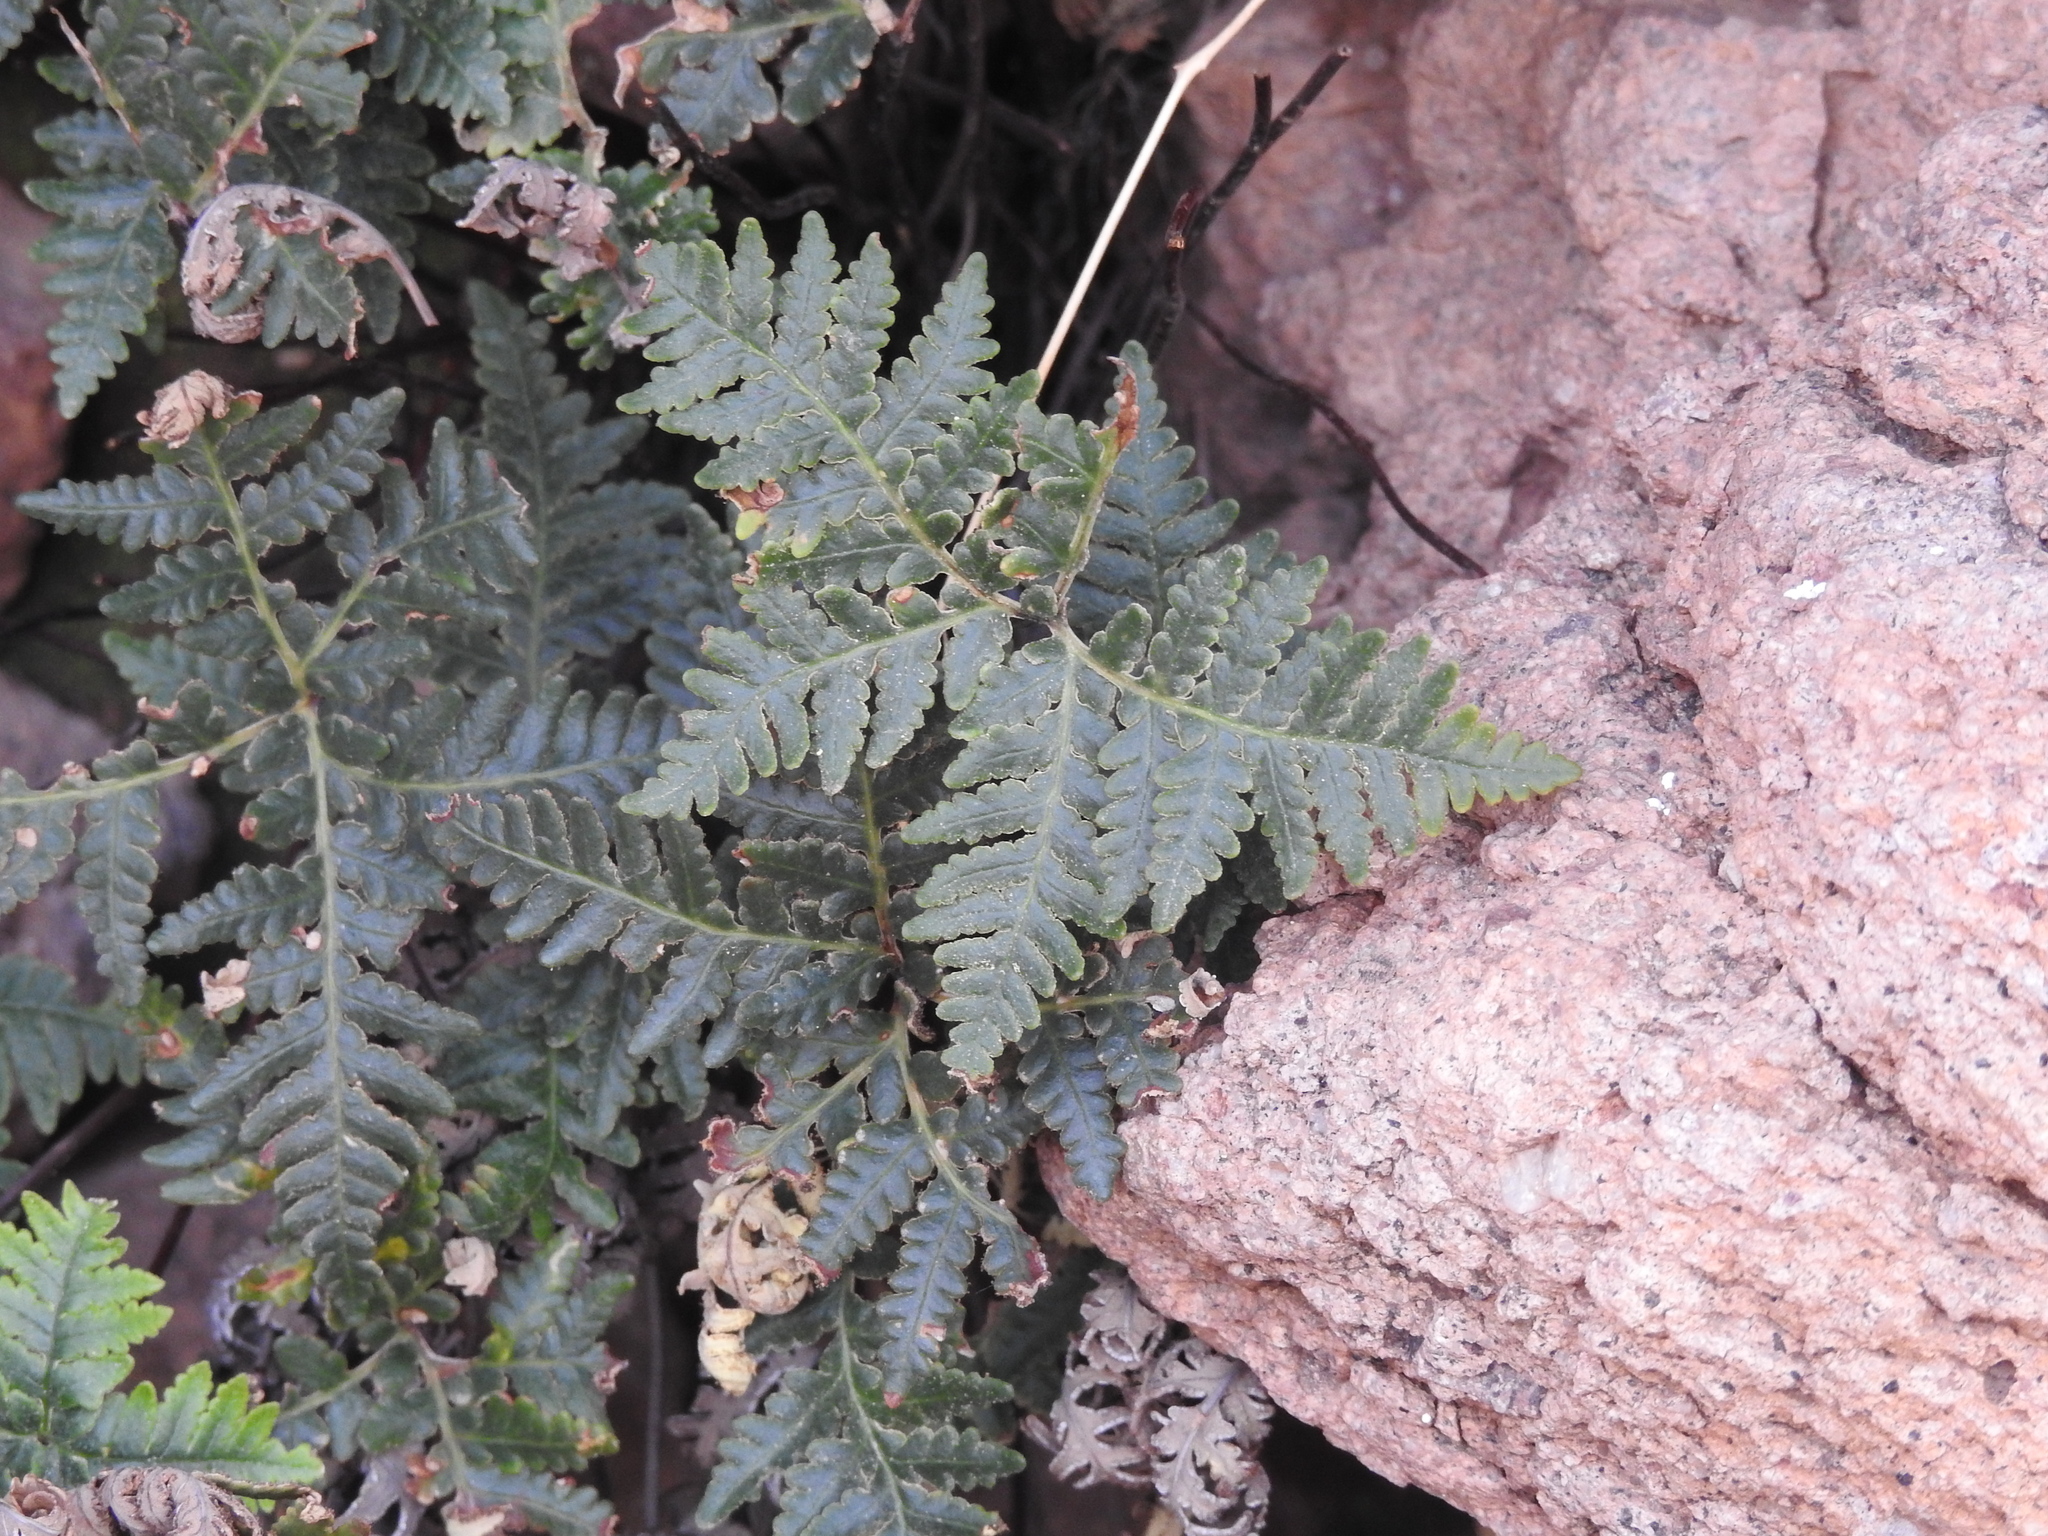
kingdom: Plantae
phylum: Tracheophyta
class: Polypodiopsida
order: Polypodiales
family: Pteridaceae
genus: Notholaena
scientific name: Notholaena standleyi
